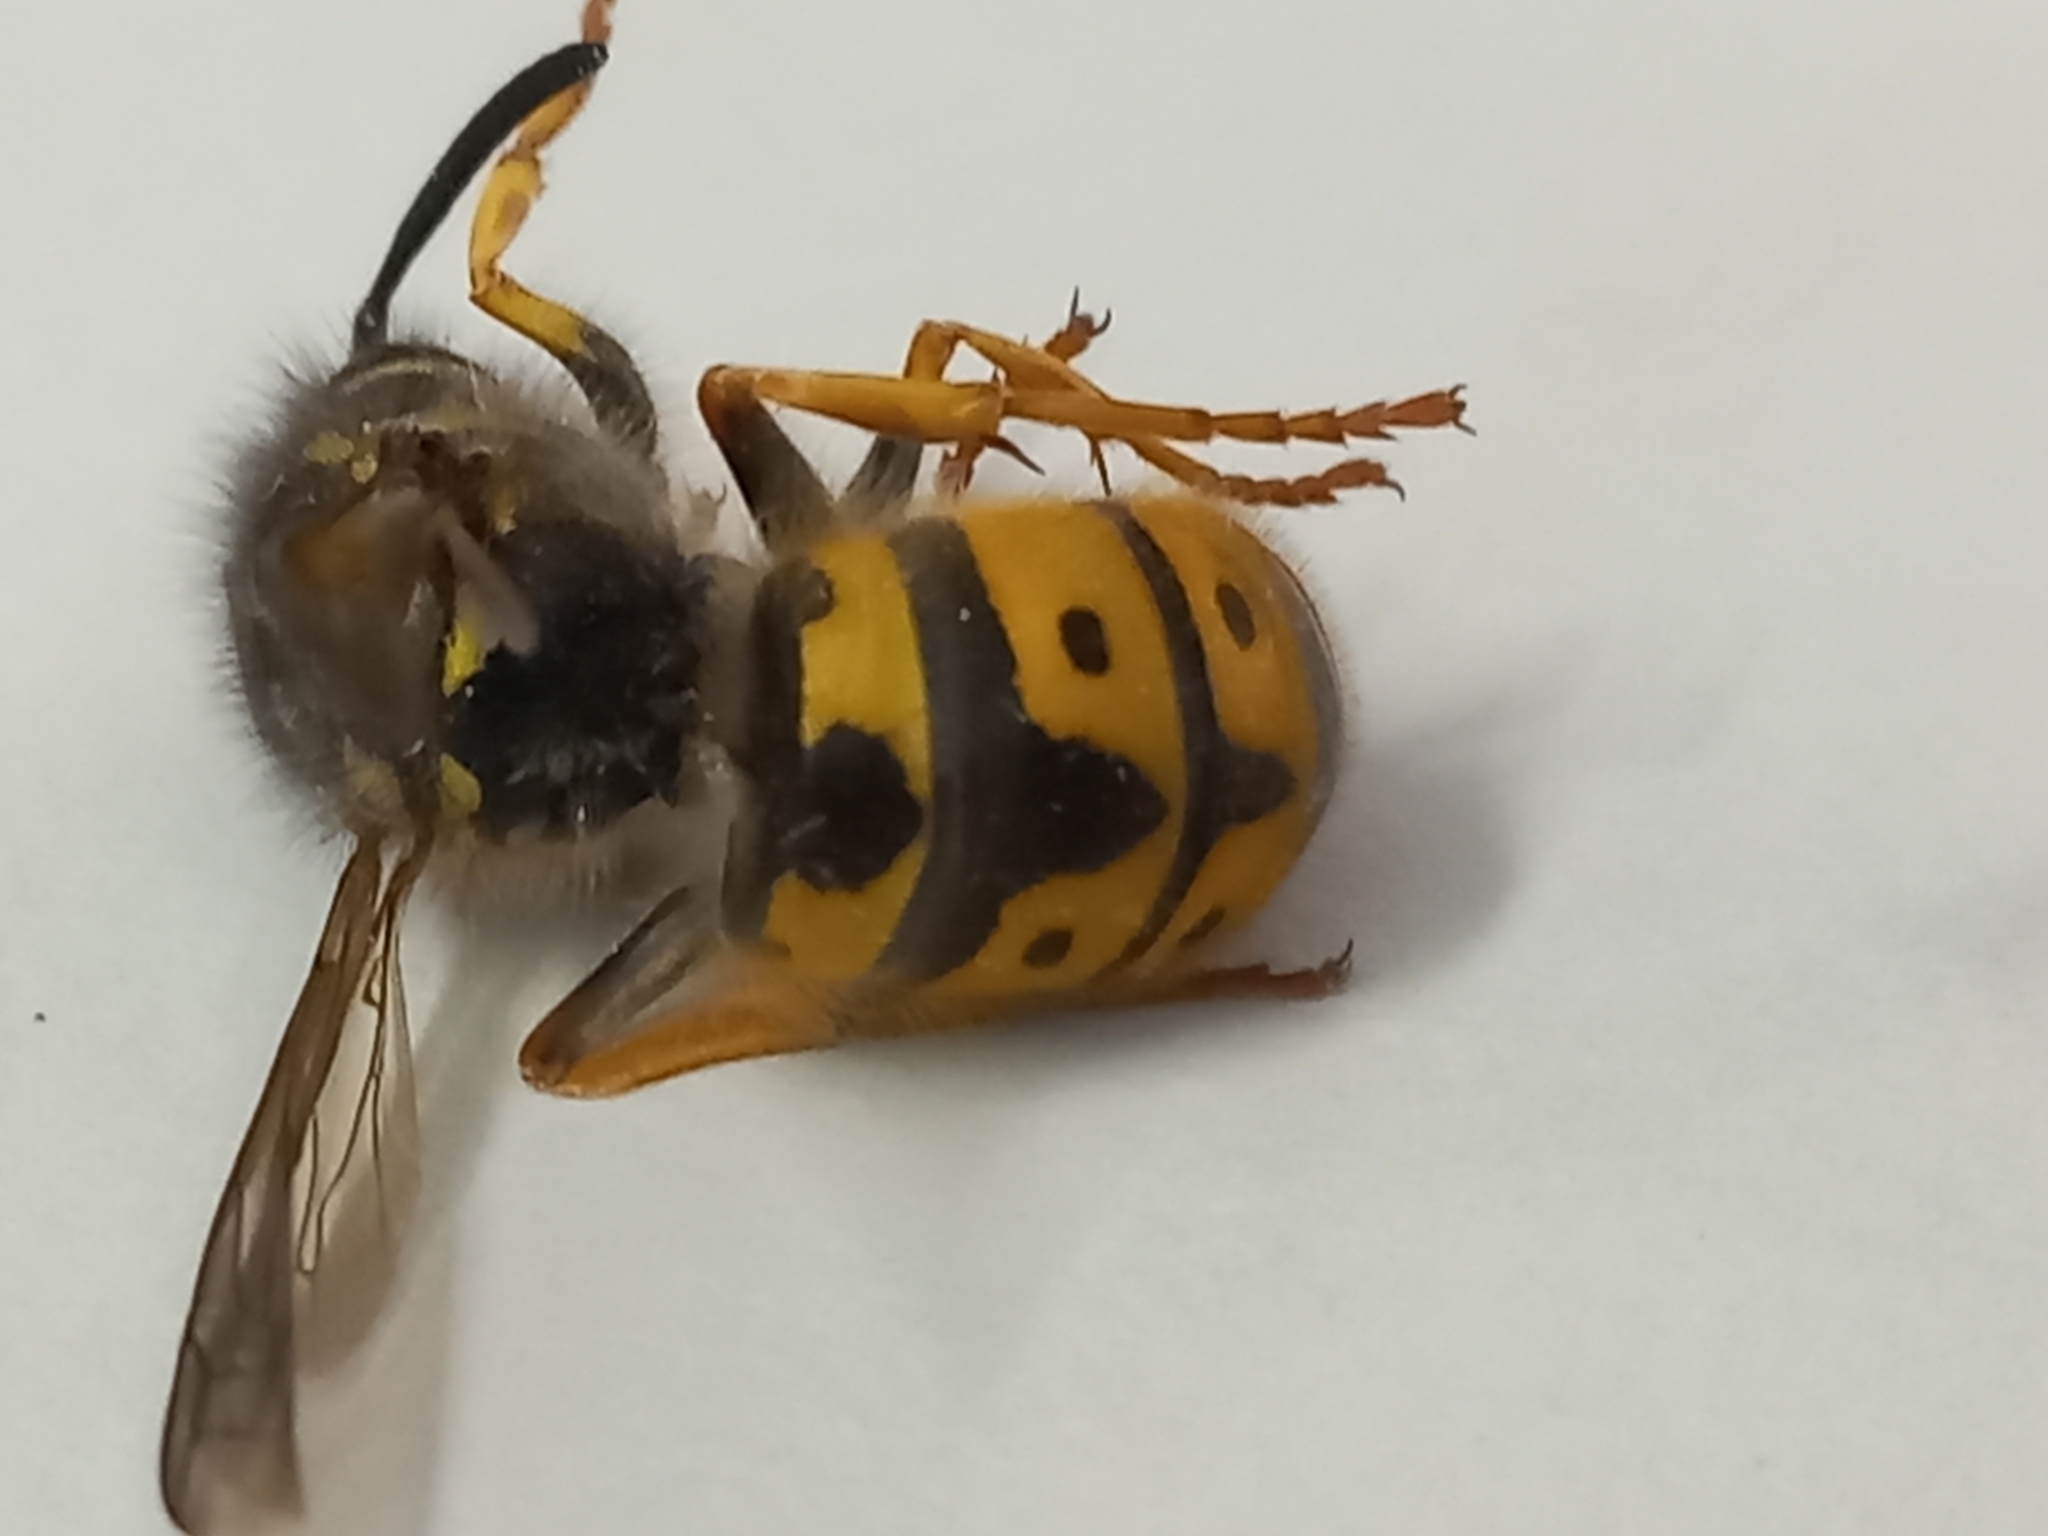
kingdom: Animalia
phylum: Arthropoda
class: Insecta
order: Hymenoptera
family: Vespidae
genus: Vespula
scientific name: Vespula germanica
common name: German wasp
